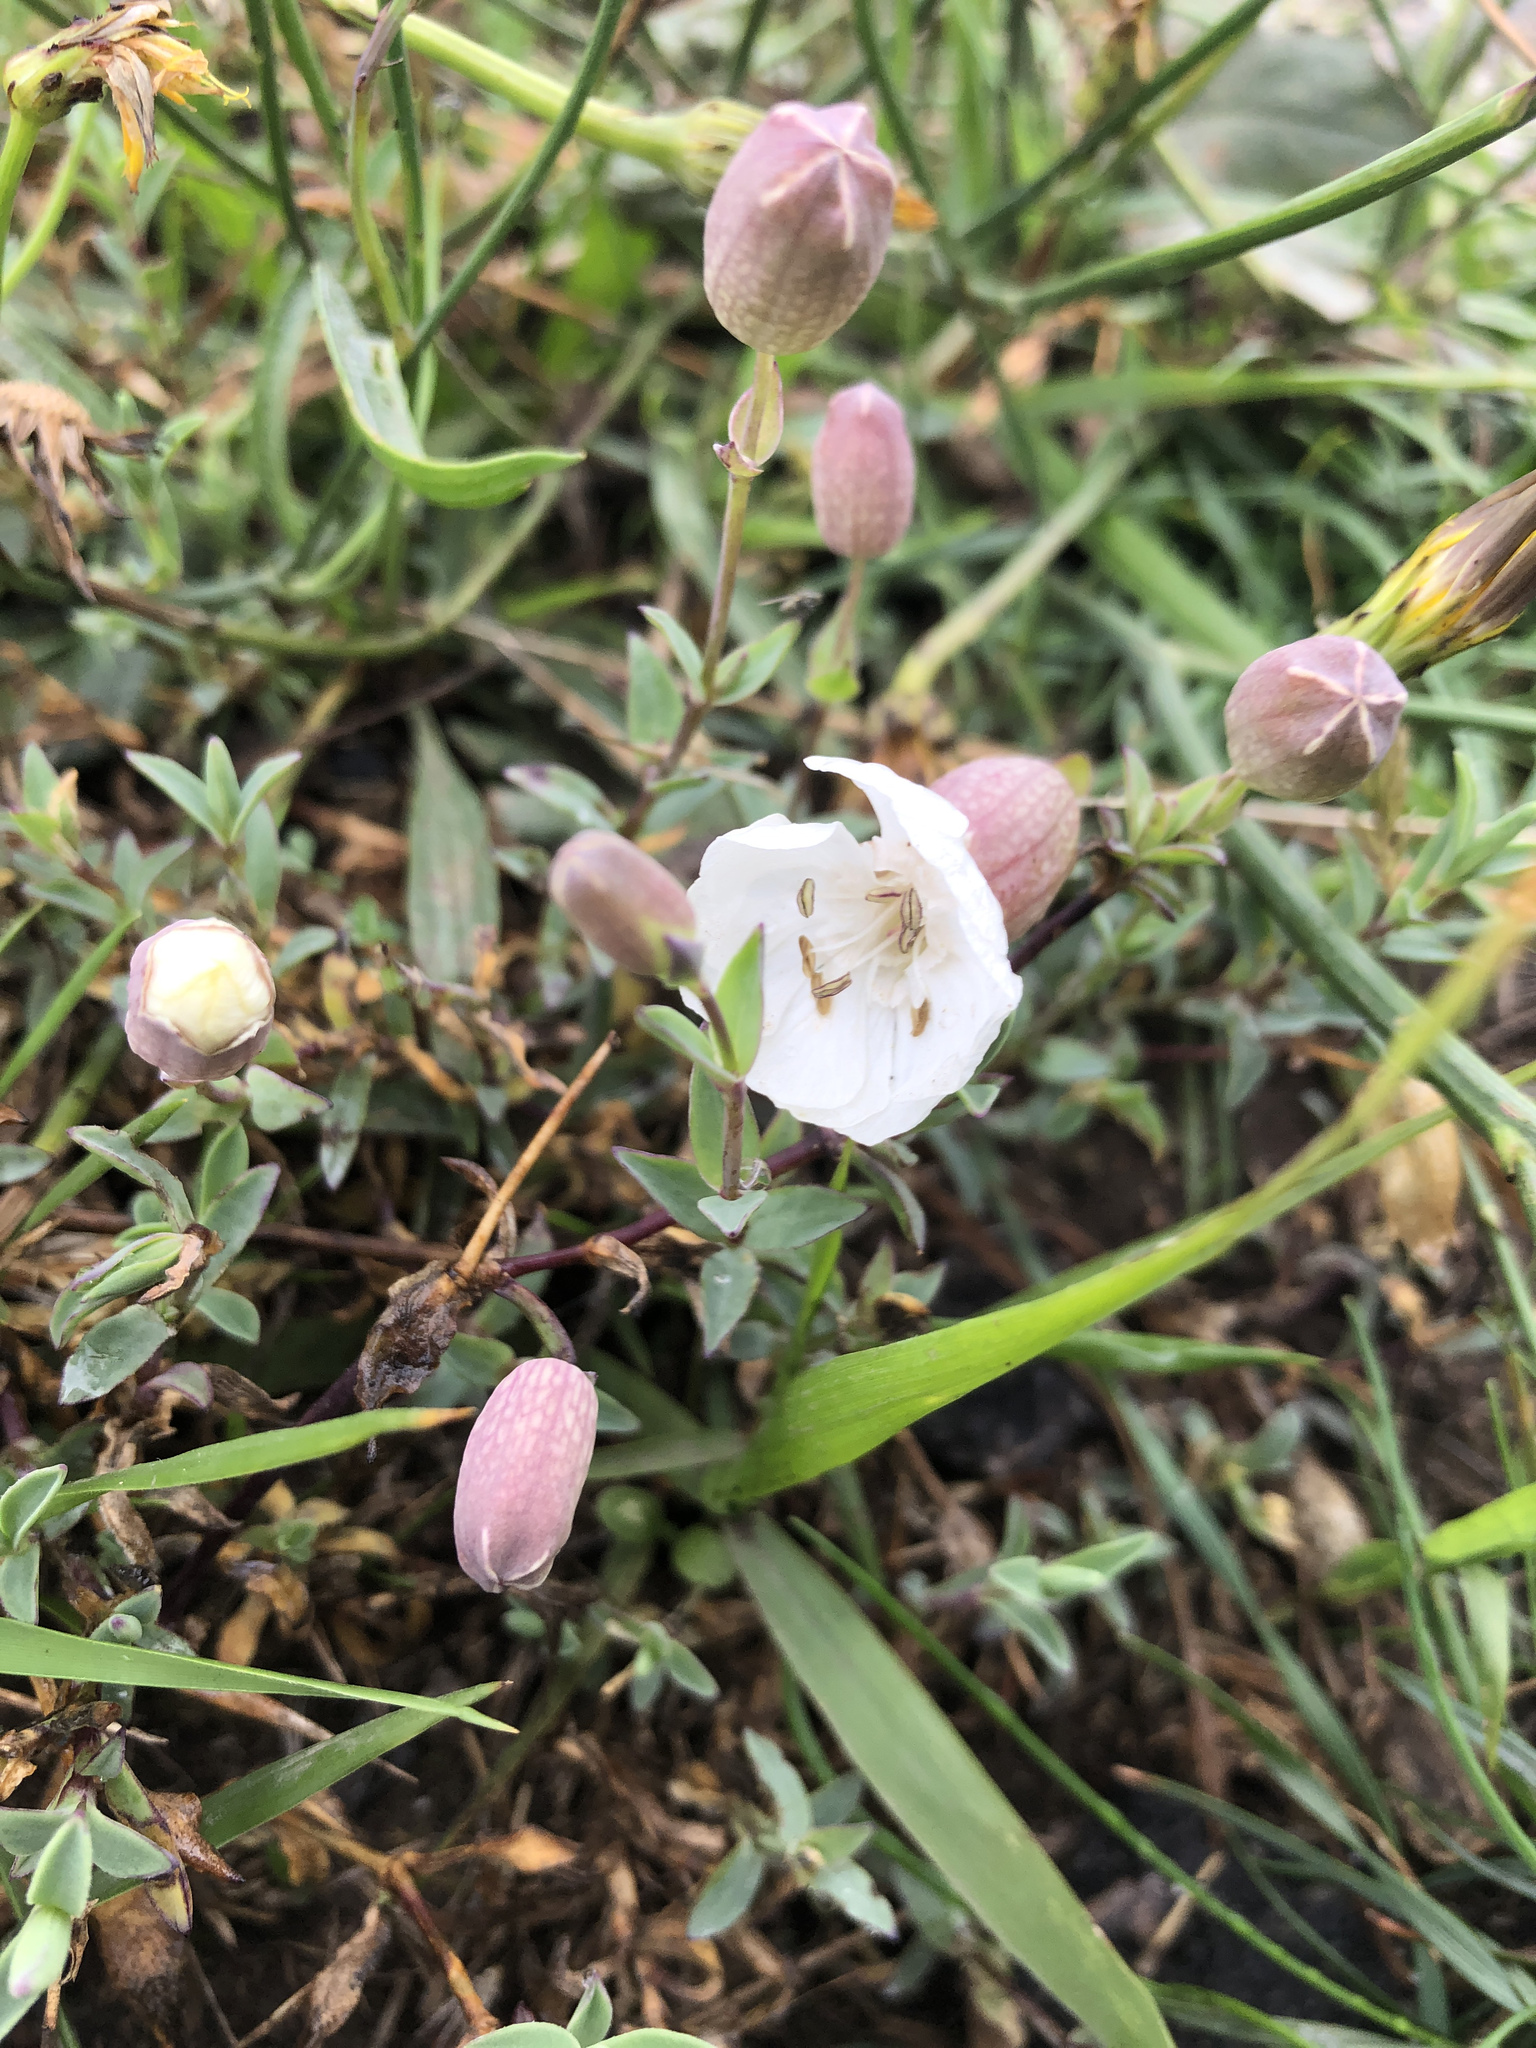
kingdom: Plantae
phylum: Tracheophyta
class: Magnoliopsida
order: Caryophyllales
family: Caryophyllaceae
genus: Silene
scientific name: Silene uniflora
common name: Sea campion
